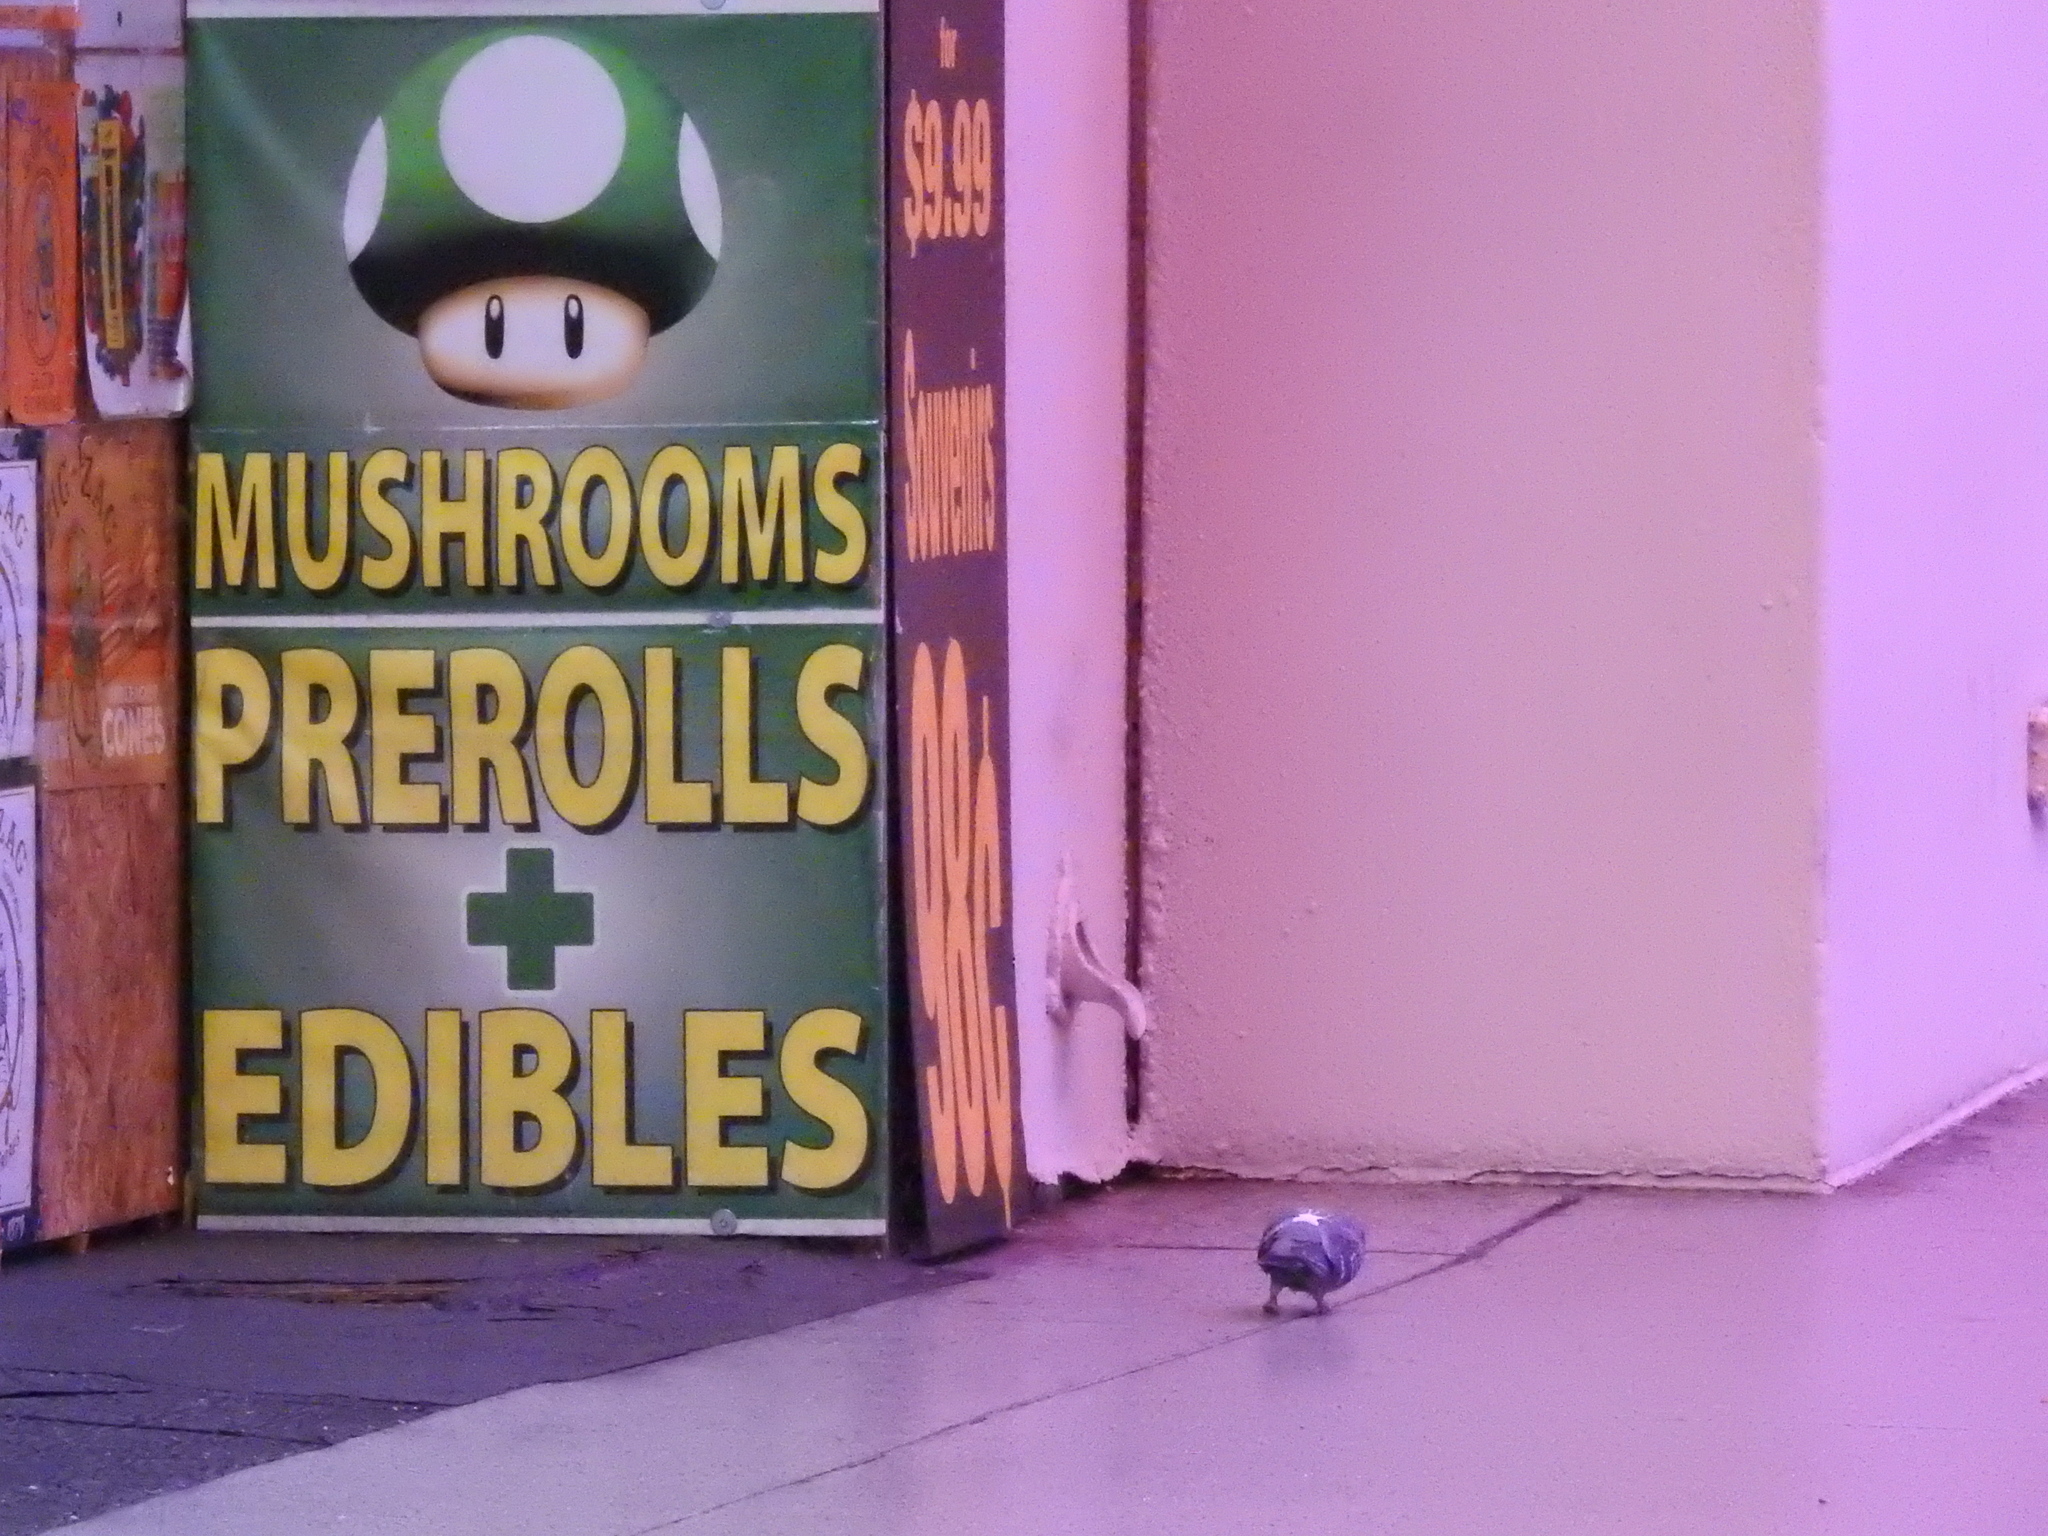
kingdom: Animalia
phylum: Chordata
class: Aves
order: Columbiformes
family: Columbidae
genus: Columba
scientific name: Columba livia
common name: Rock pigeon
